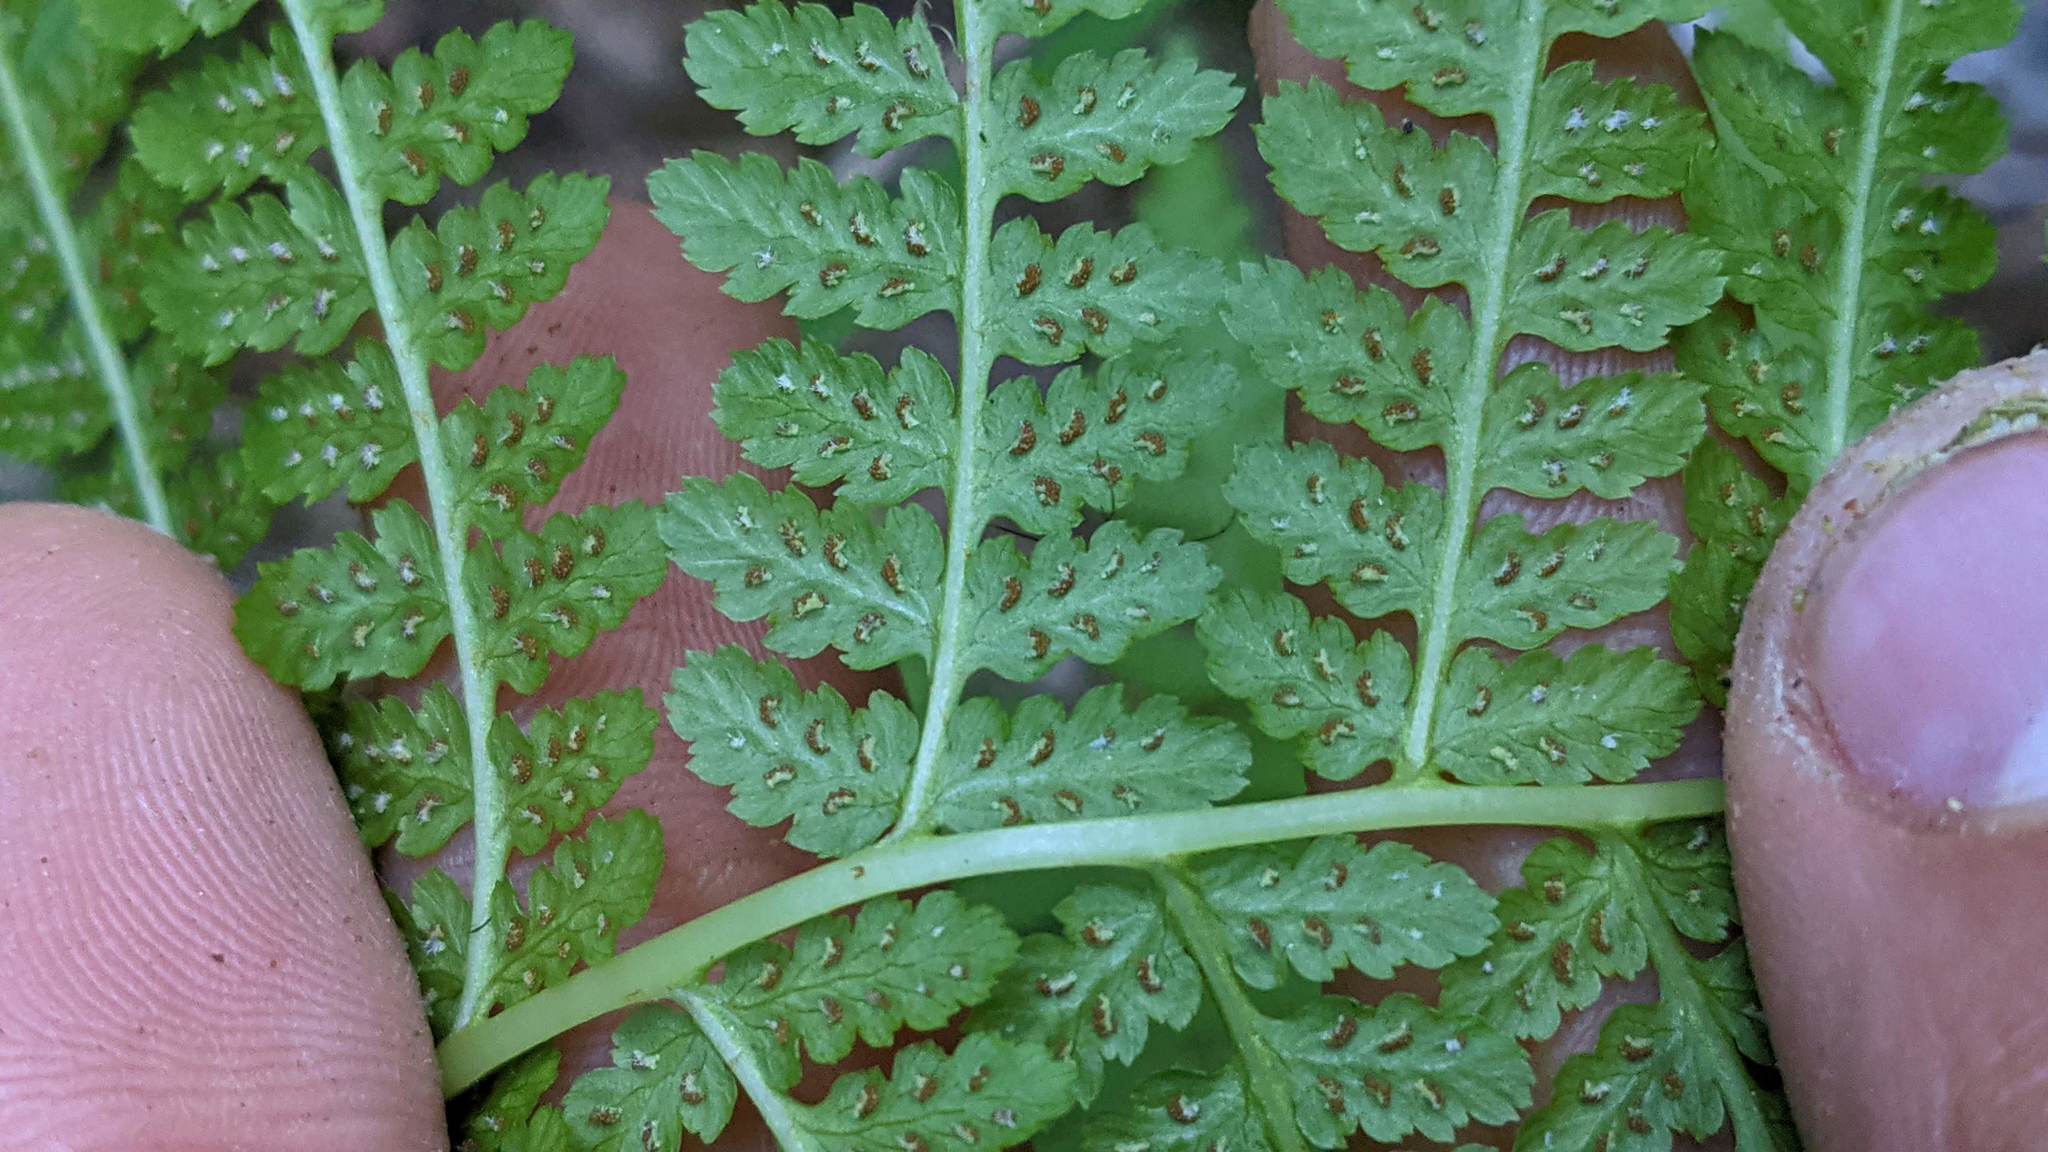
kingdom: Plantae
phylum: Tracheophyta
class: Polypodiopsida
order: Polypodiales
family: Athyriaceae
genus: Athyrium
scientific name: Athyrium filix-femina
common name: Lady fern
